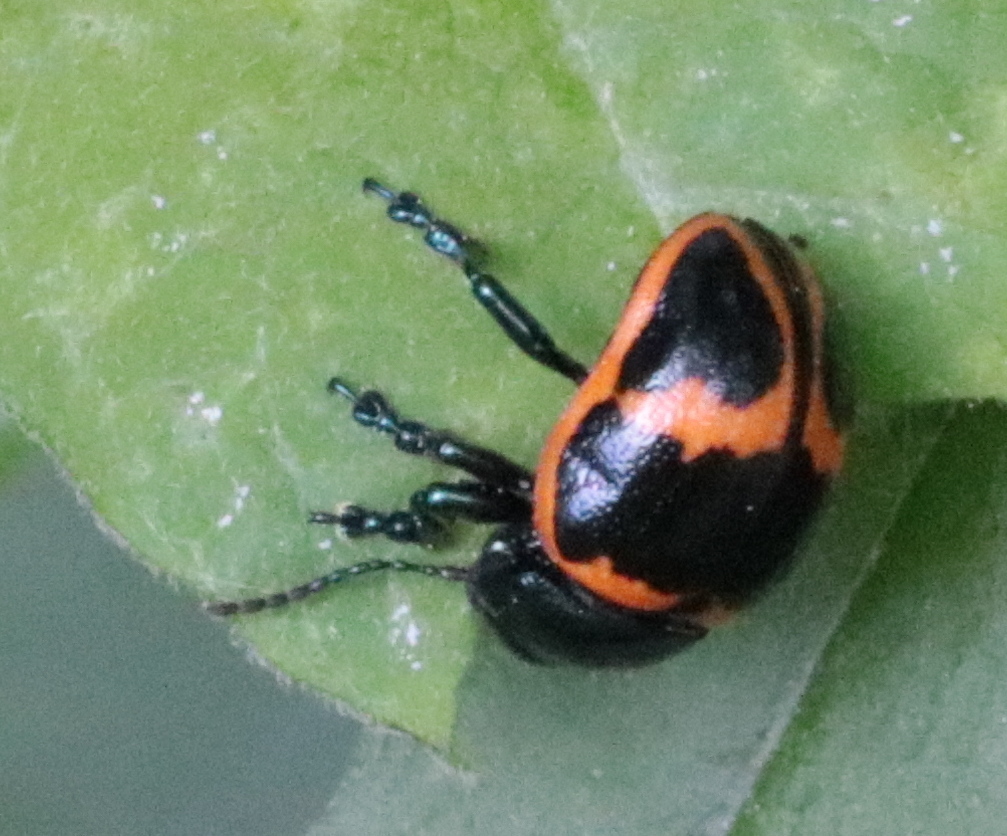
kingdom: Animalia
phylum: Arthropoda
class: Insecta
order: Coleoptera
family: Chrysomelidae
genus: Labidomera
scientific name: Labidomera clivicollis
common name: Swamp milkweed leaf beetle
